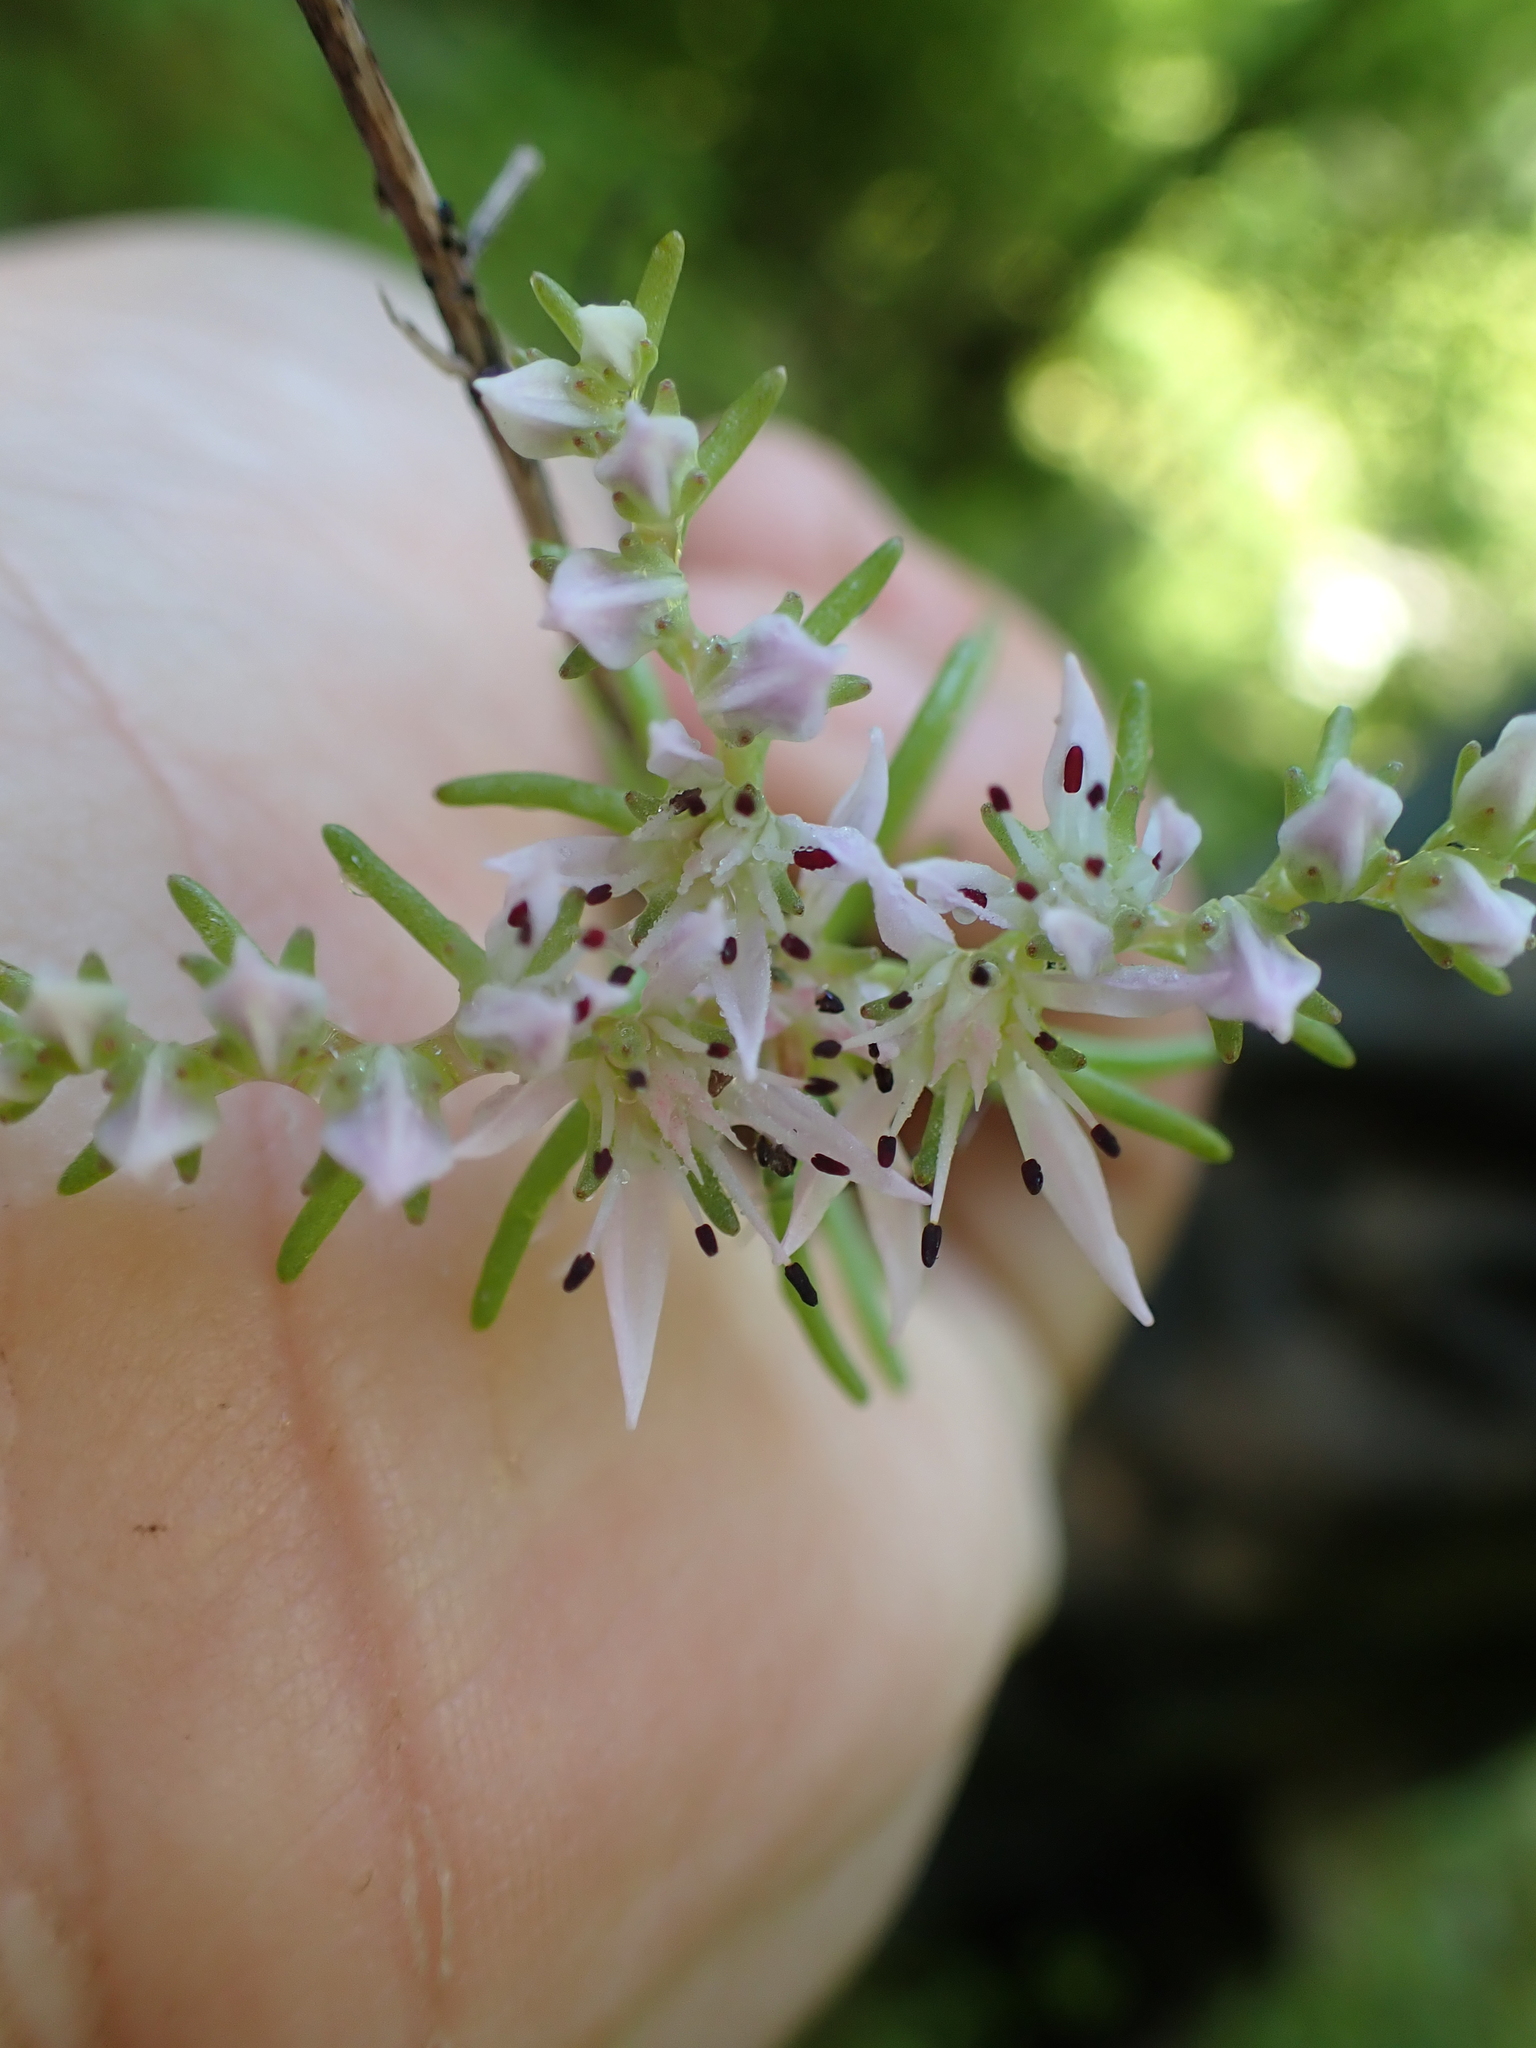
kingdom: Plantae
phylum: Tracheophyta
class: Magnoliopsida
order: Saxifragales
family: Crassulaceae
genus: Sedum
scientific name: Sedum pulchellum
